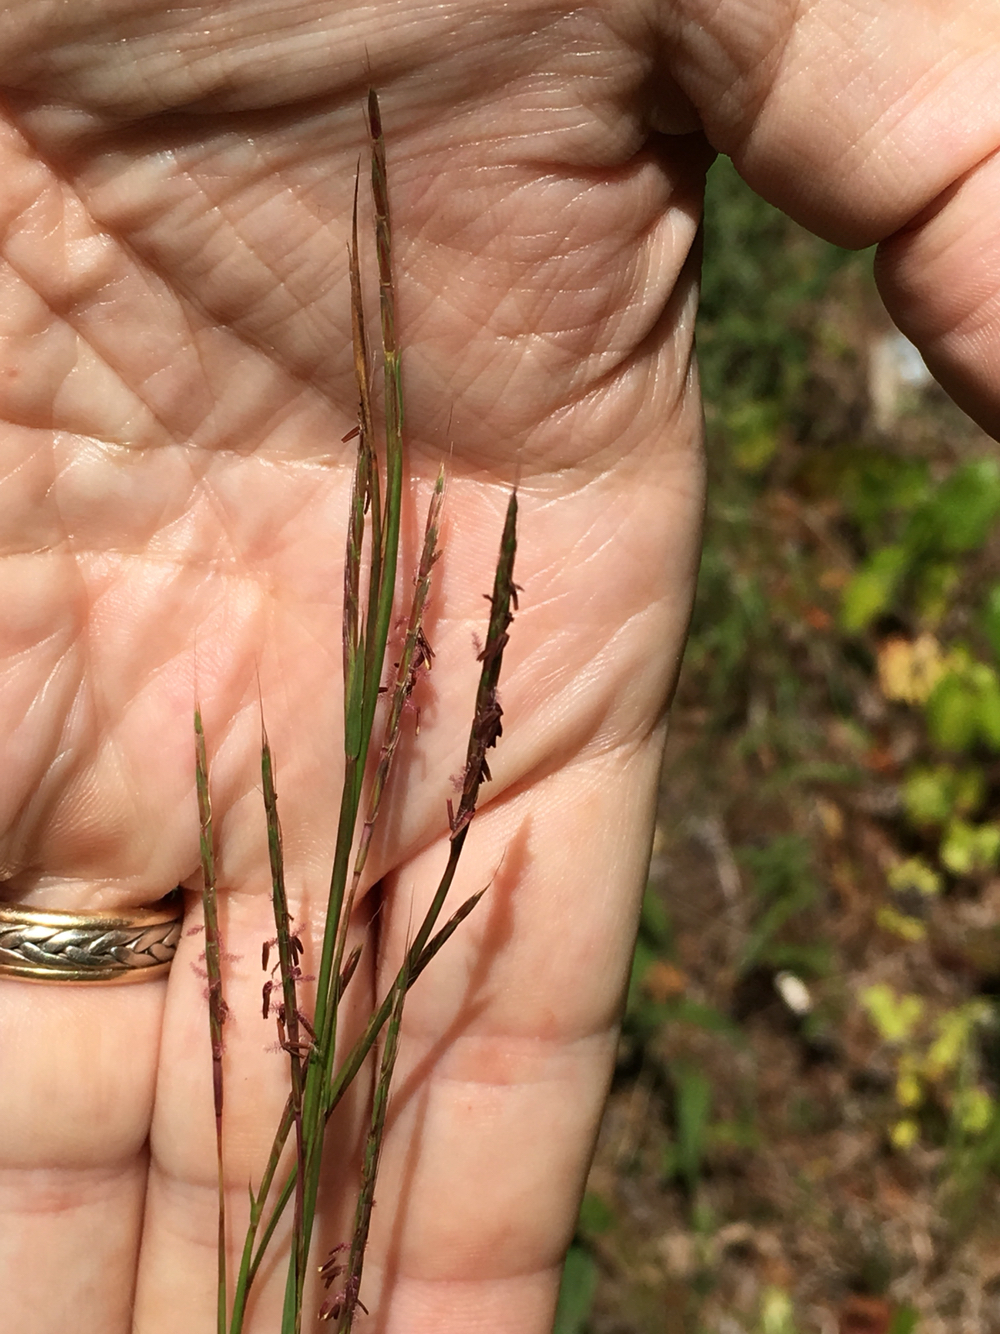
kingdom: Plantae
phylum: Tracheophyta
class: Liliopsida
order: Poales
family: Poaceae
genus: Schizachyrium
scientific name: Schizachyrium scoparium
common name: Little bluestem
